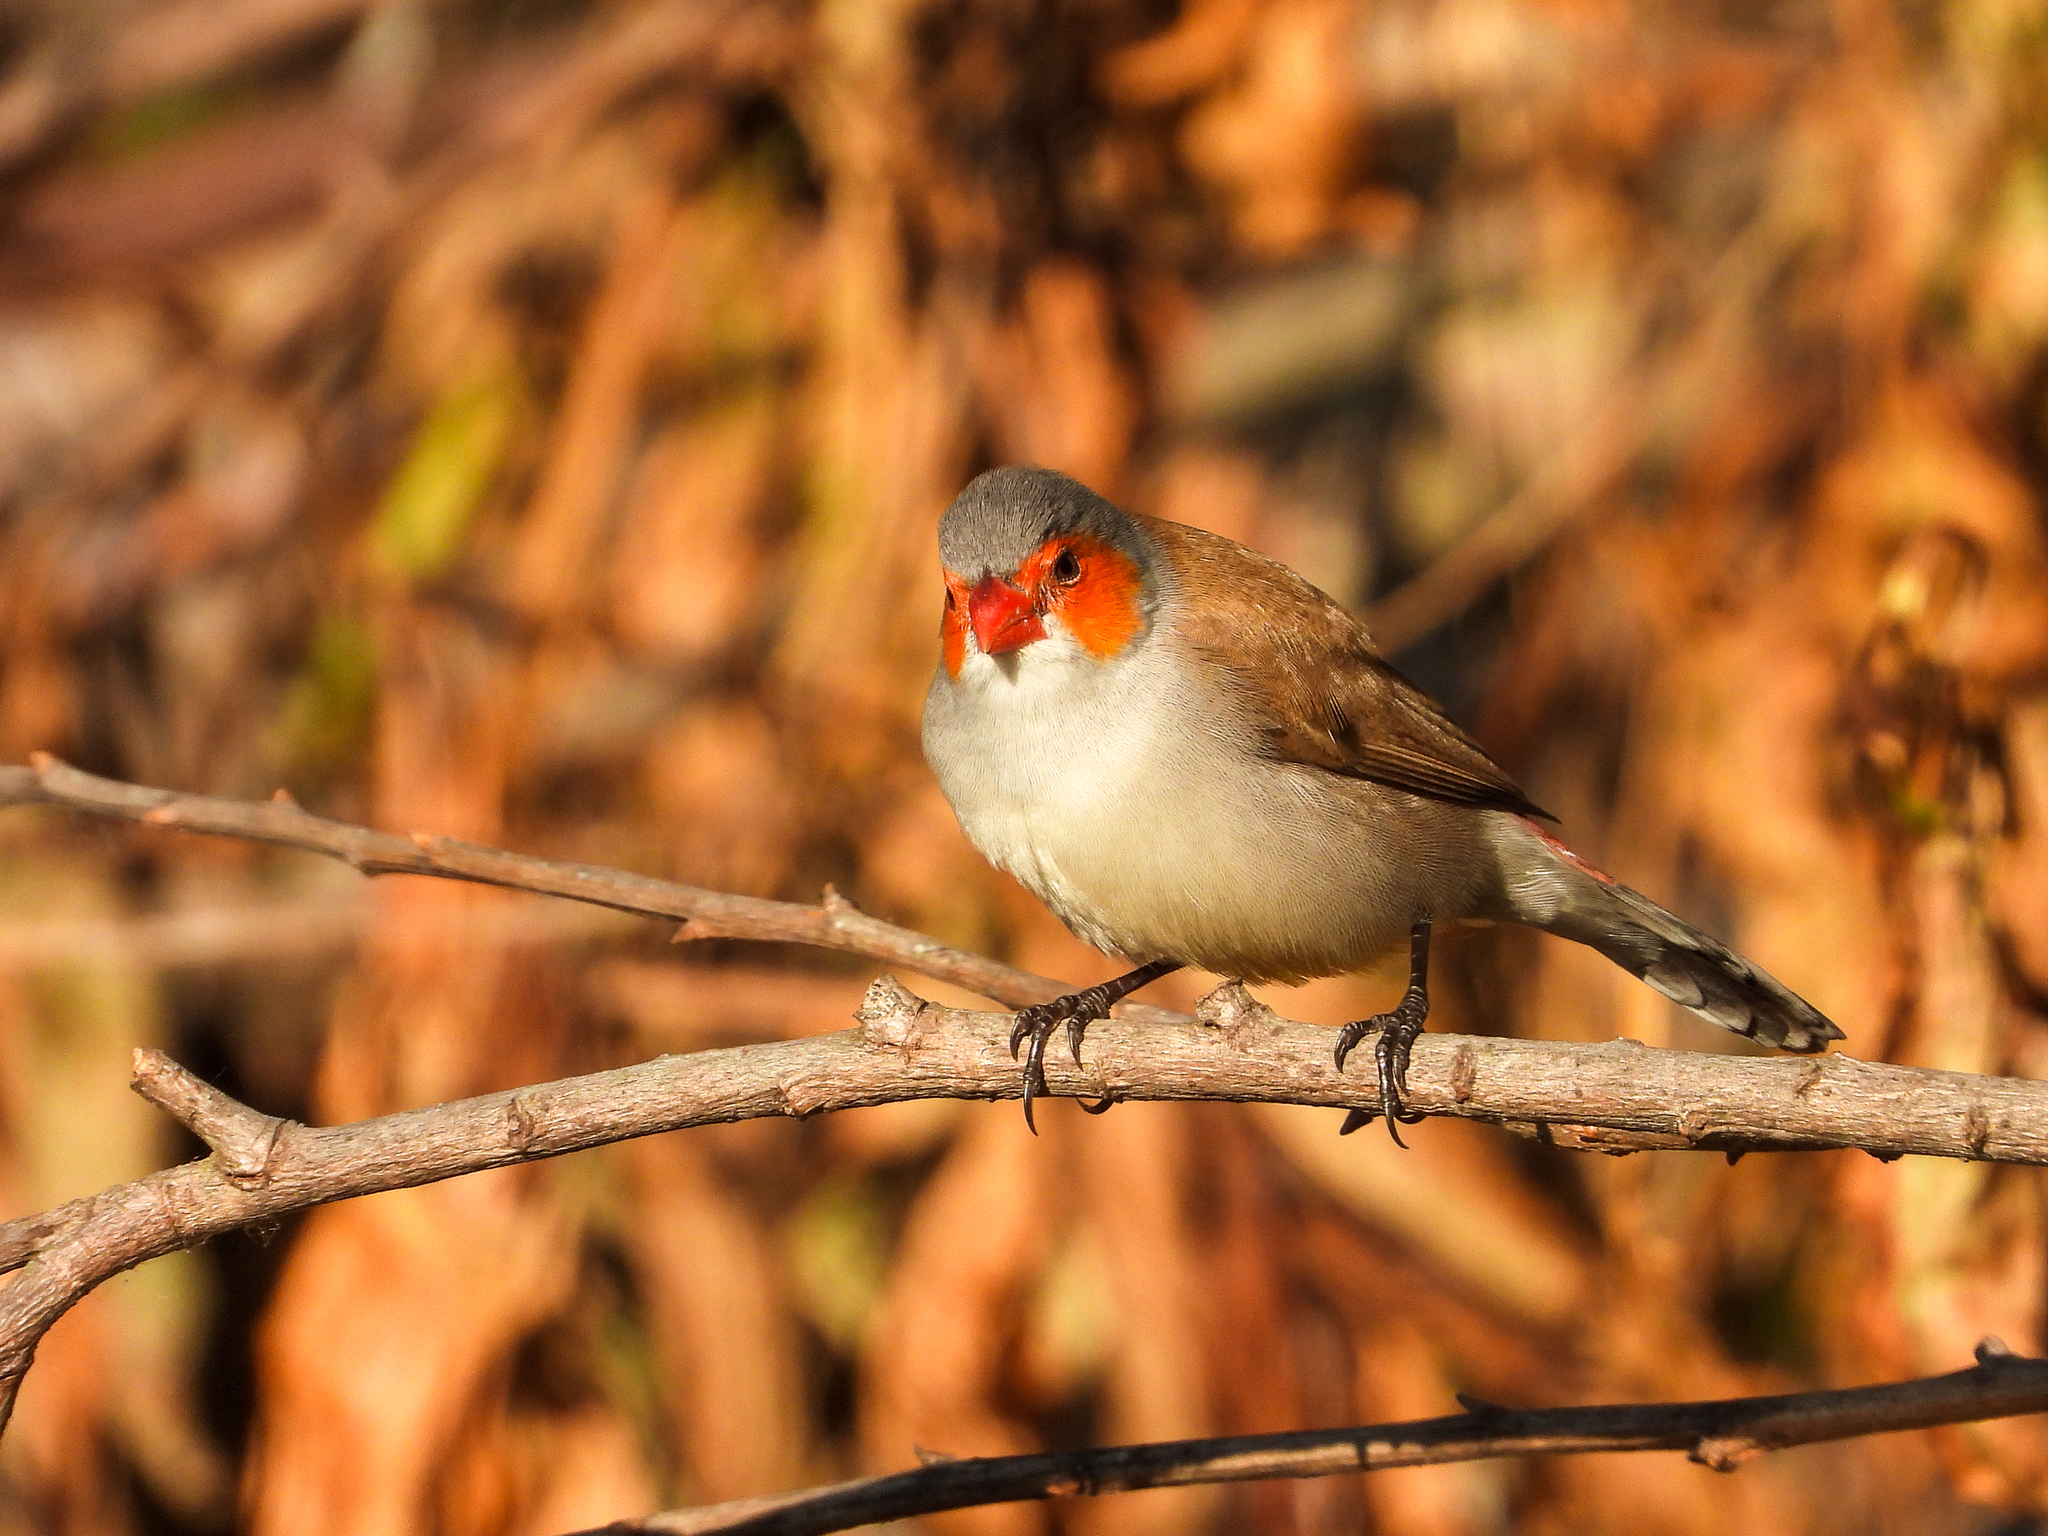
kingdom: Animalia
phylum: Chordata
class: Aves
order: Passeriformes
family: Estrildidae
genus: Estrilda
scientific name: Estrilda melpoda
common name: Orange-cheeked waxbill
